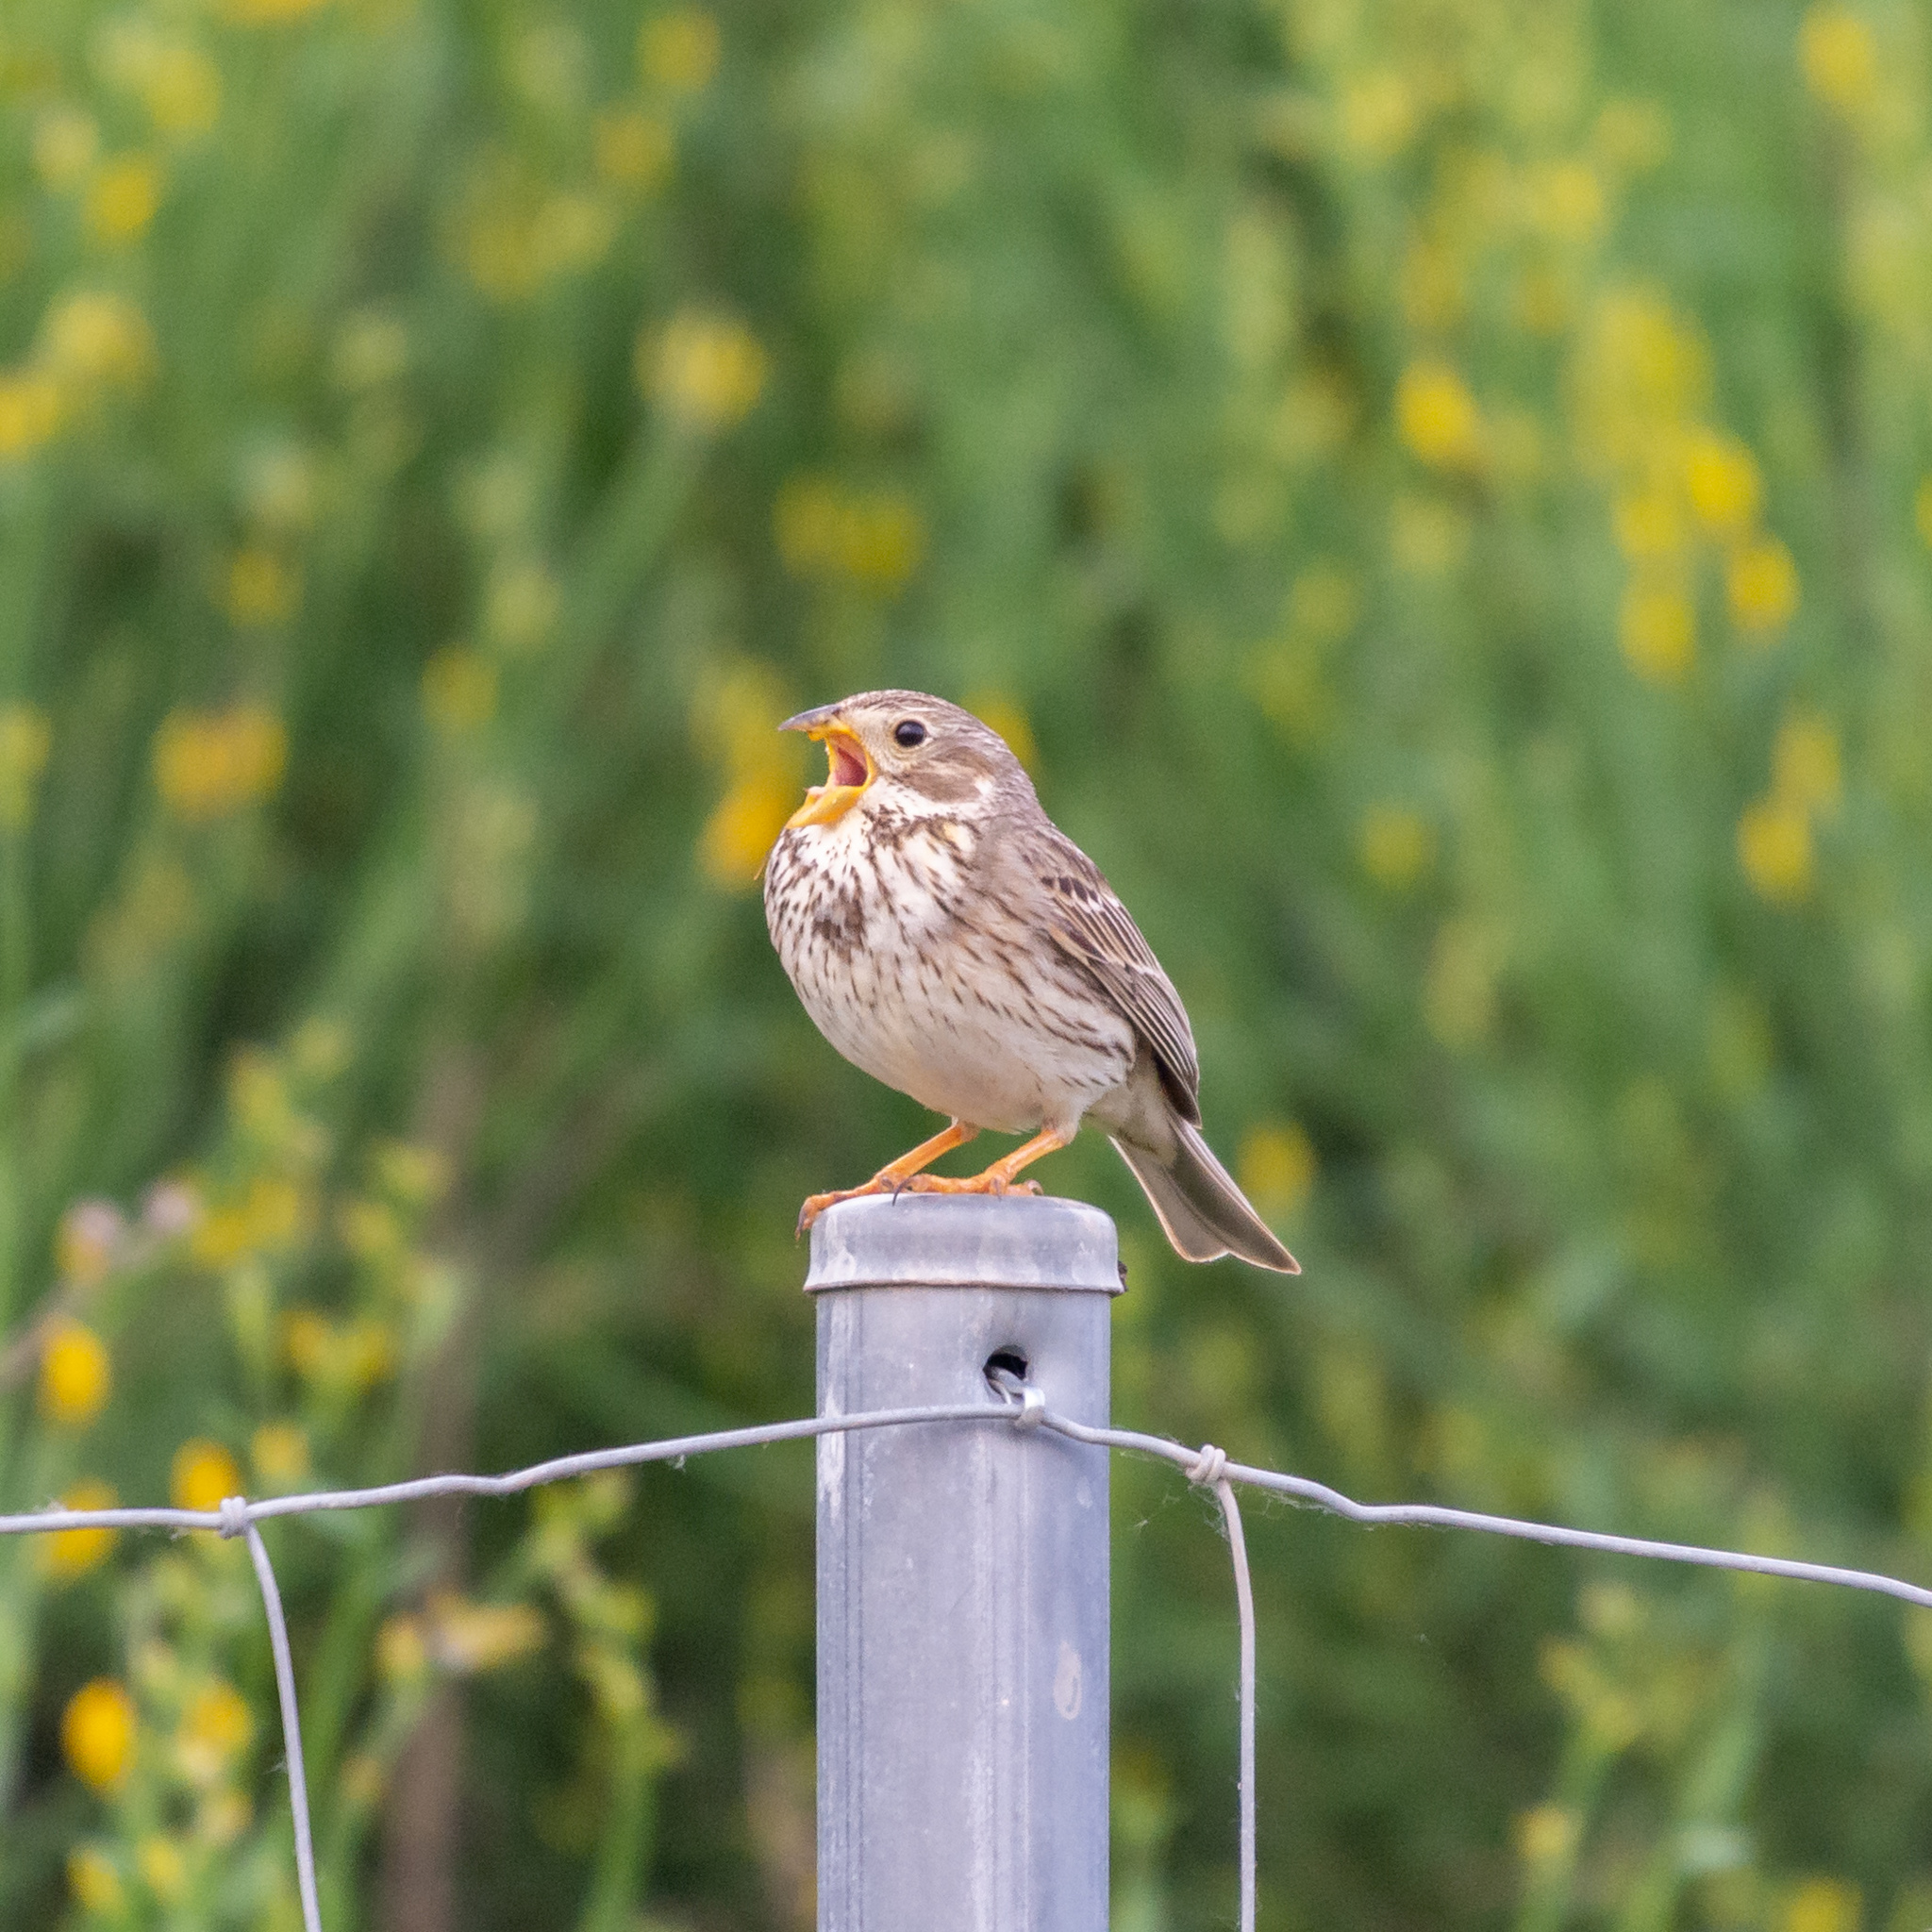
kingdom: Animalia
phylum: Chordata
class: Aves
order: Passeriformes
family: Emberizidae
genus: Emberiza
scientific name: Emberiza calandra
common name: Corn bunting
